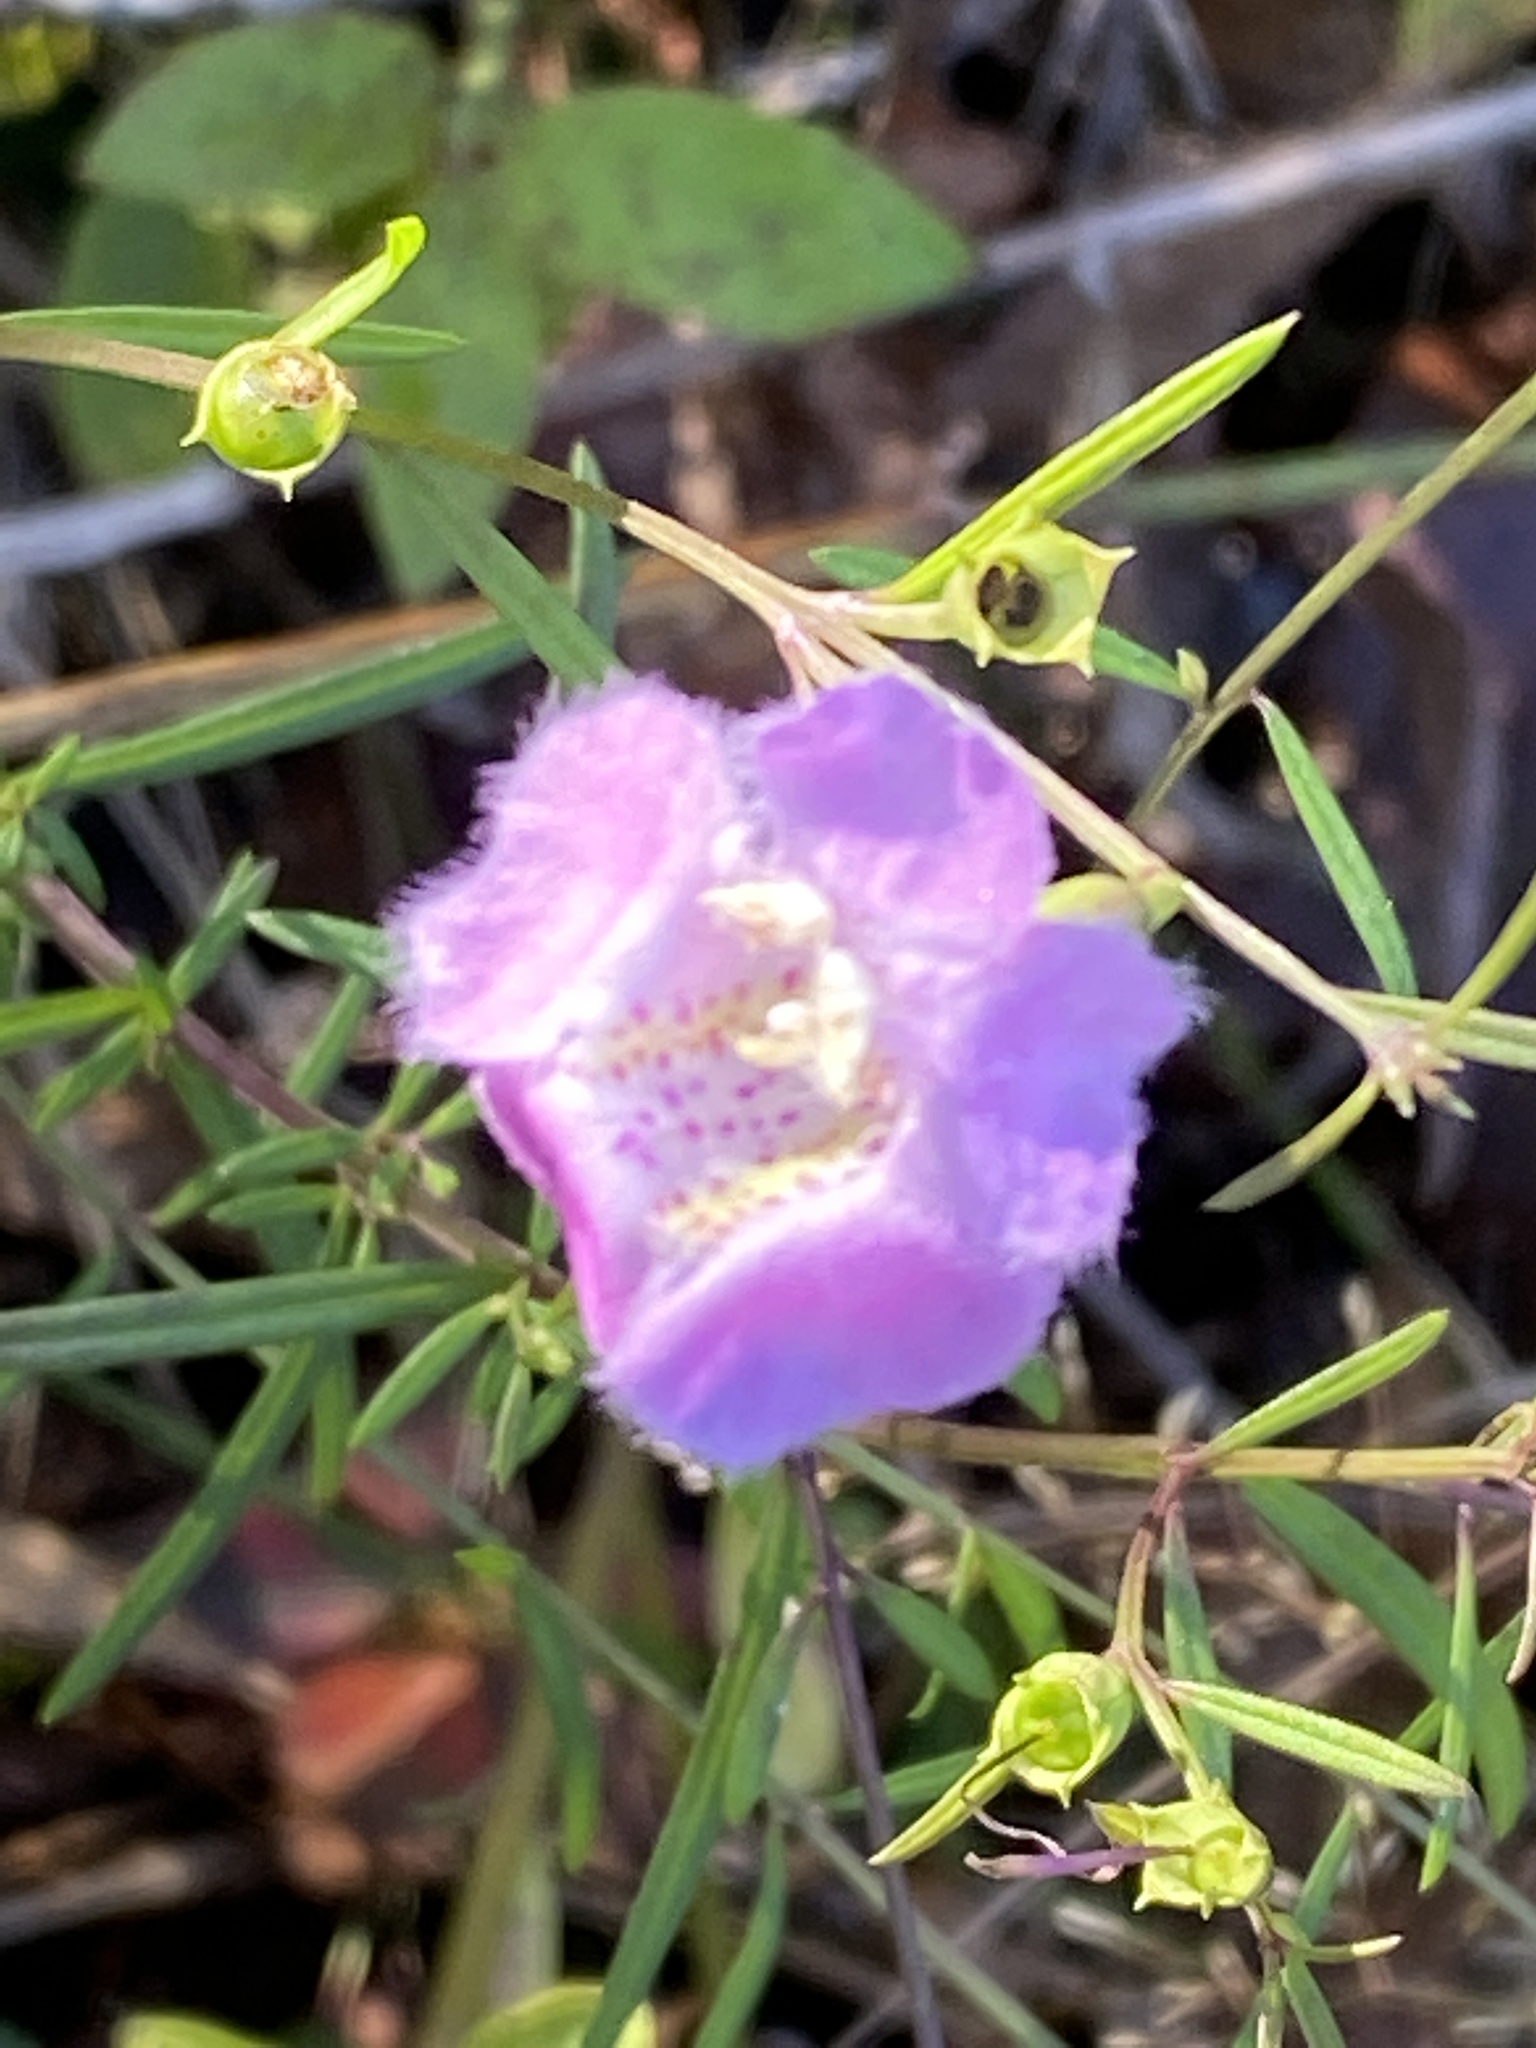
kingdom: Plantae
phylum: Tracheophyta
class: Magnoliopsida
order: Lamiales
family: Orobanchaceae
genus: Agalinis
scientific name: Agalinis purpurea
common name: Purple false foxglove
